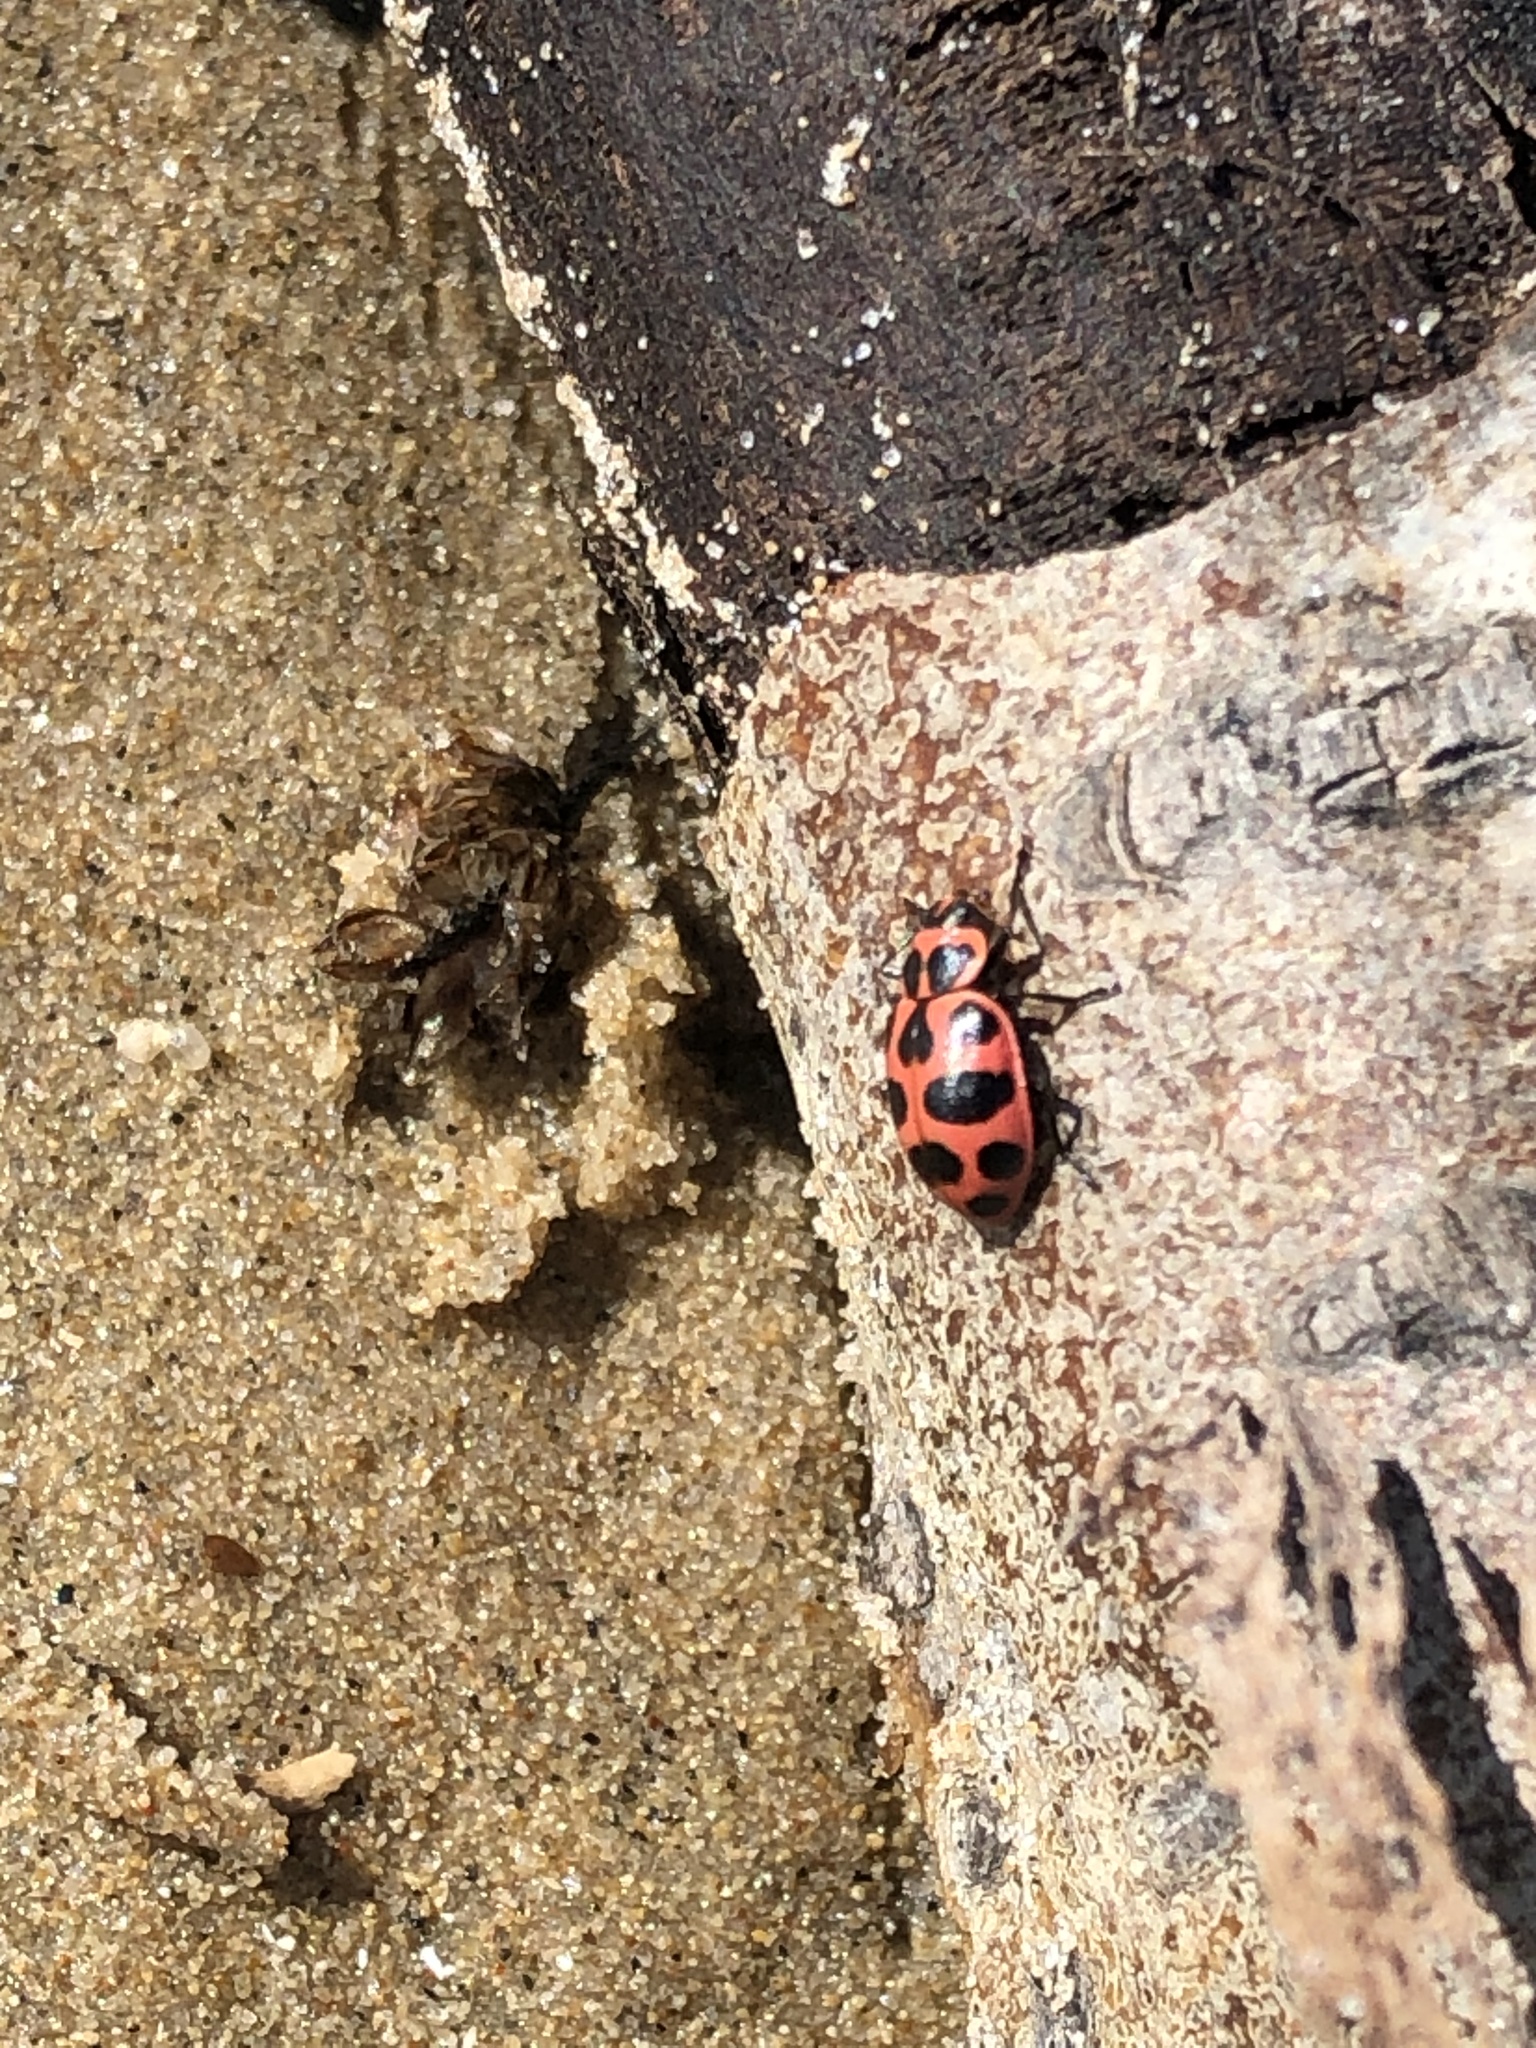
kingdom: Animalia
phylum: Arthropoda
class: Insecta
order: Coleoptera
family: Coccinellidae
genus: Coleomegilla
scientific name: Coleomegilla maculata
